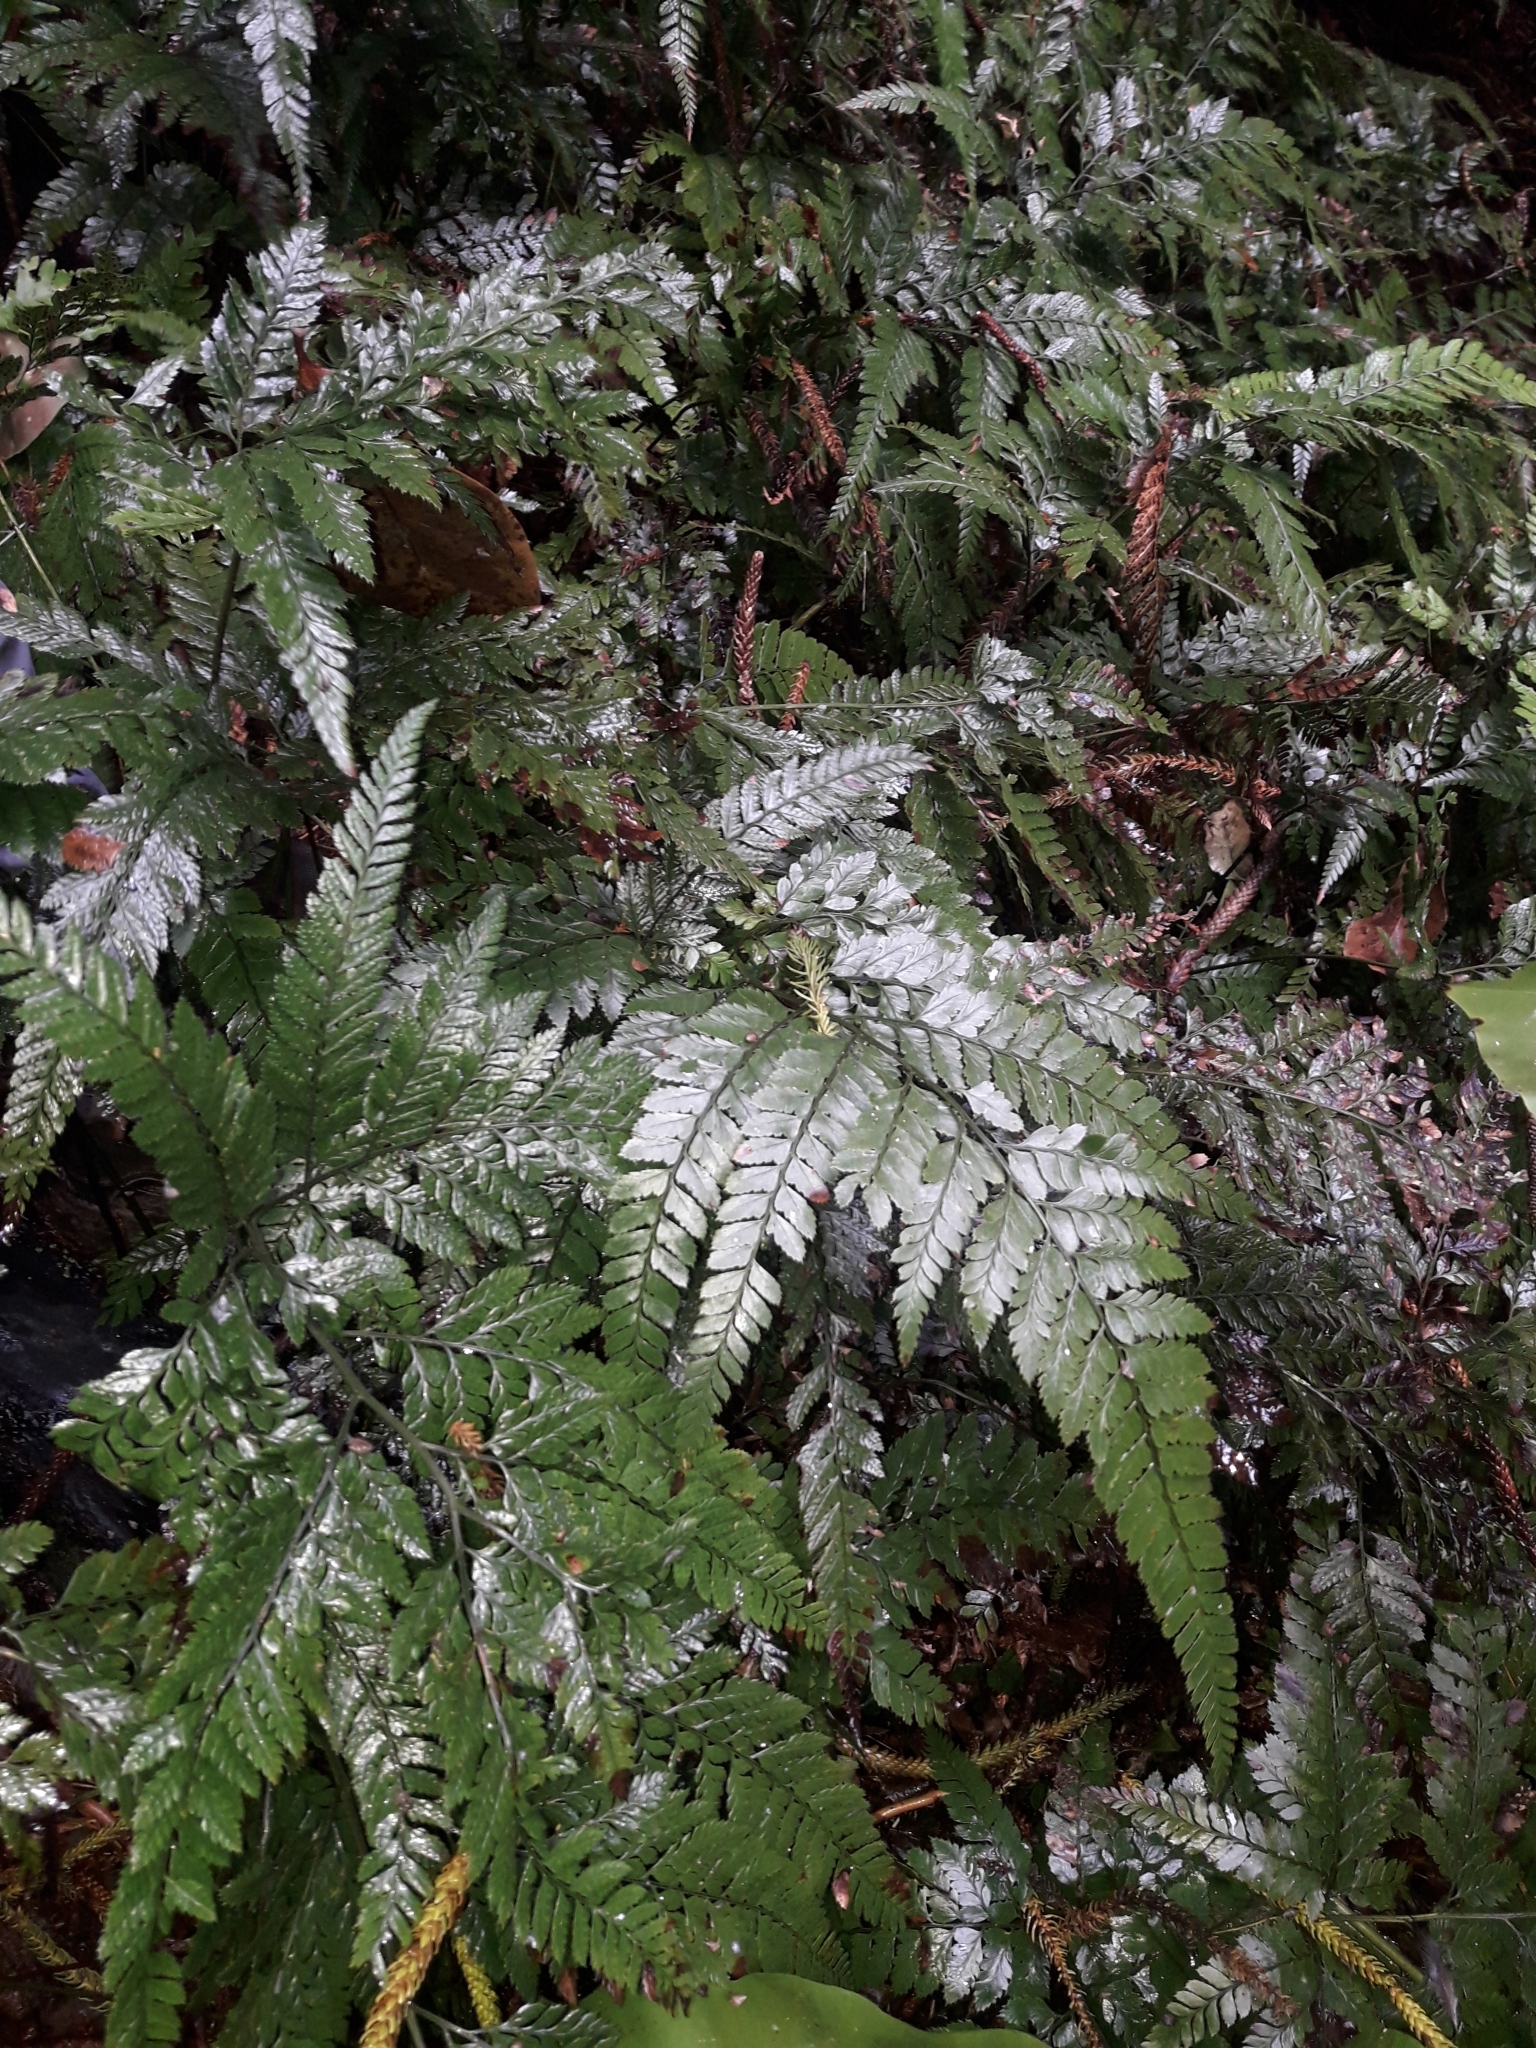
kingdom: Plantae
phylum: Tracheophyta
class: Polypodiopsida
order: Polypodiales
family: Dryopteridaceae
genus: Arachniodes
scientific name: Arachniodes aristata
